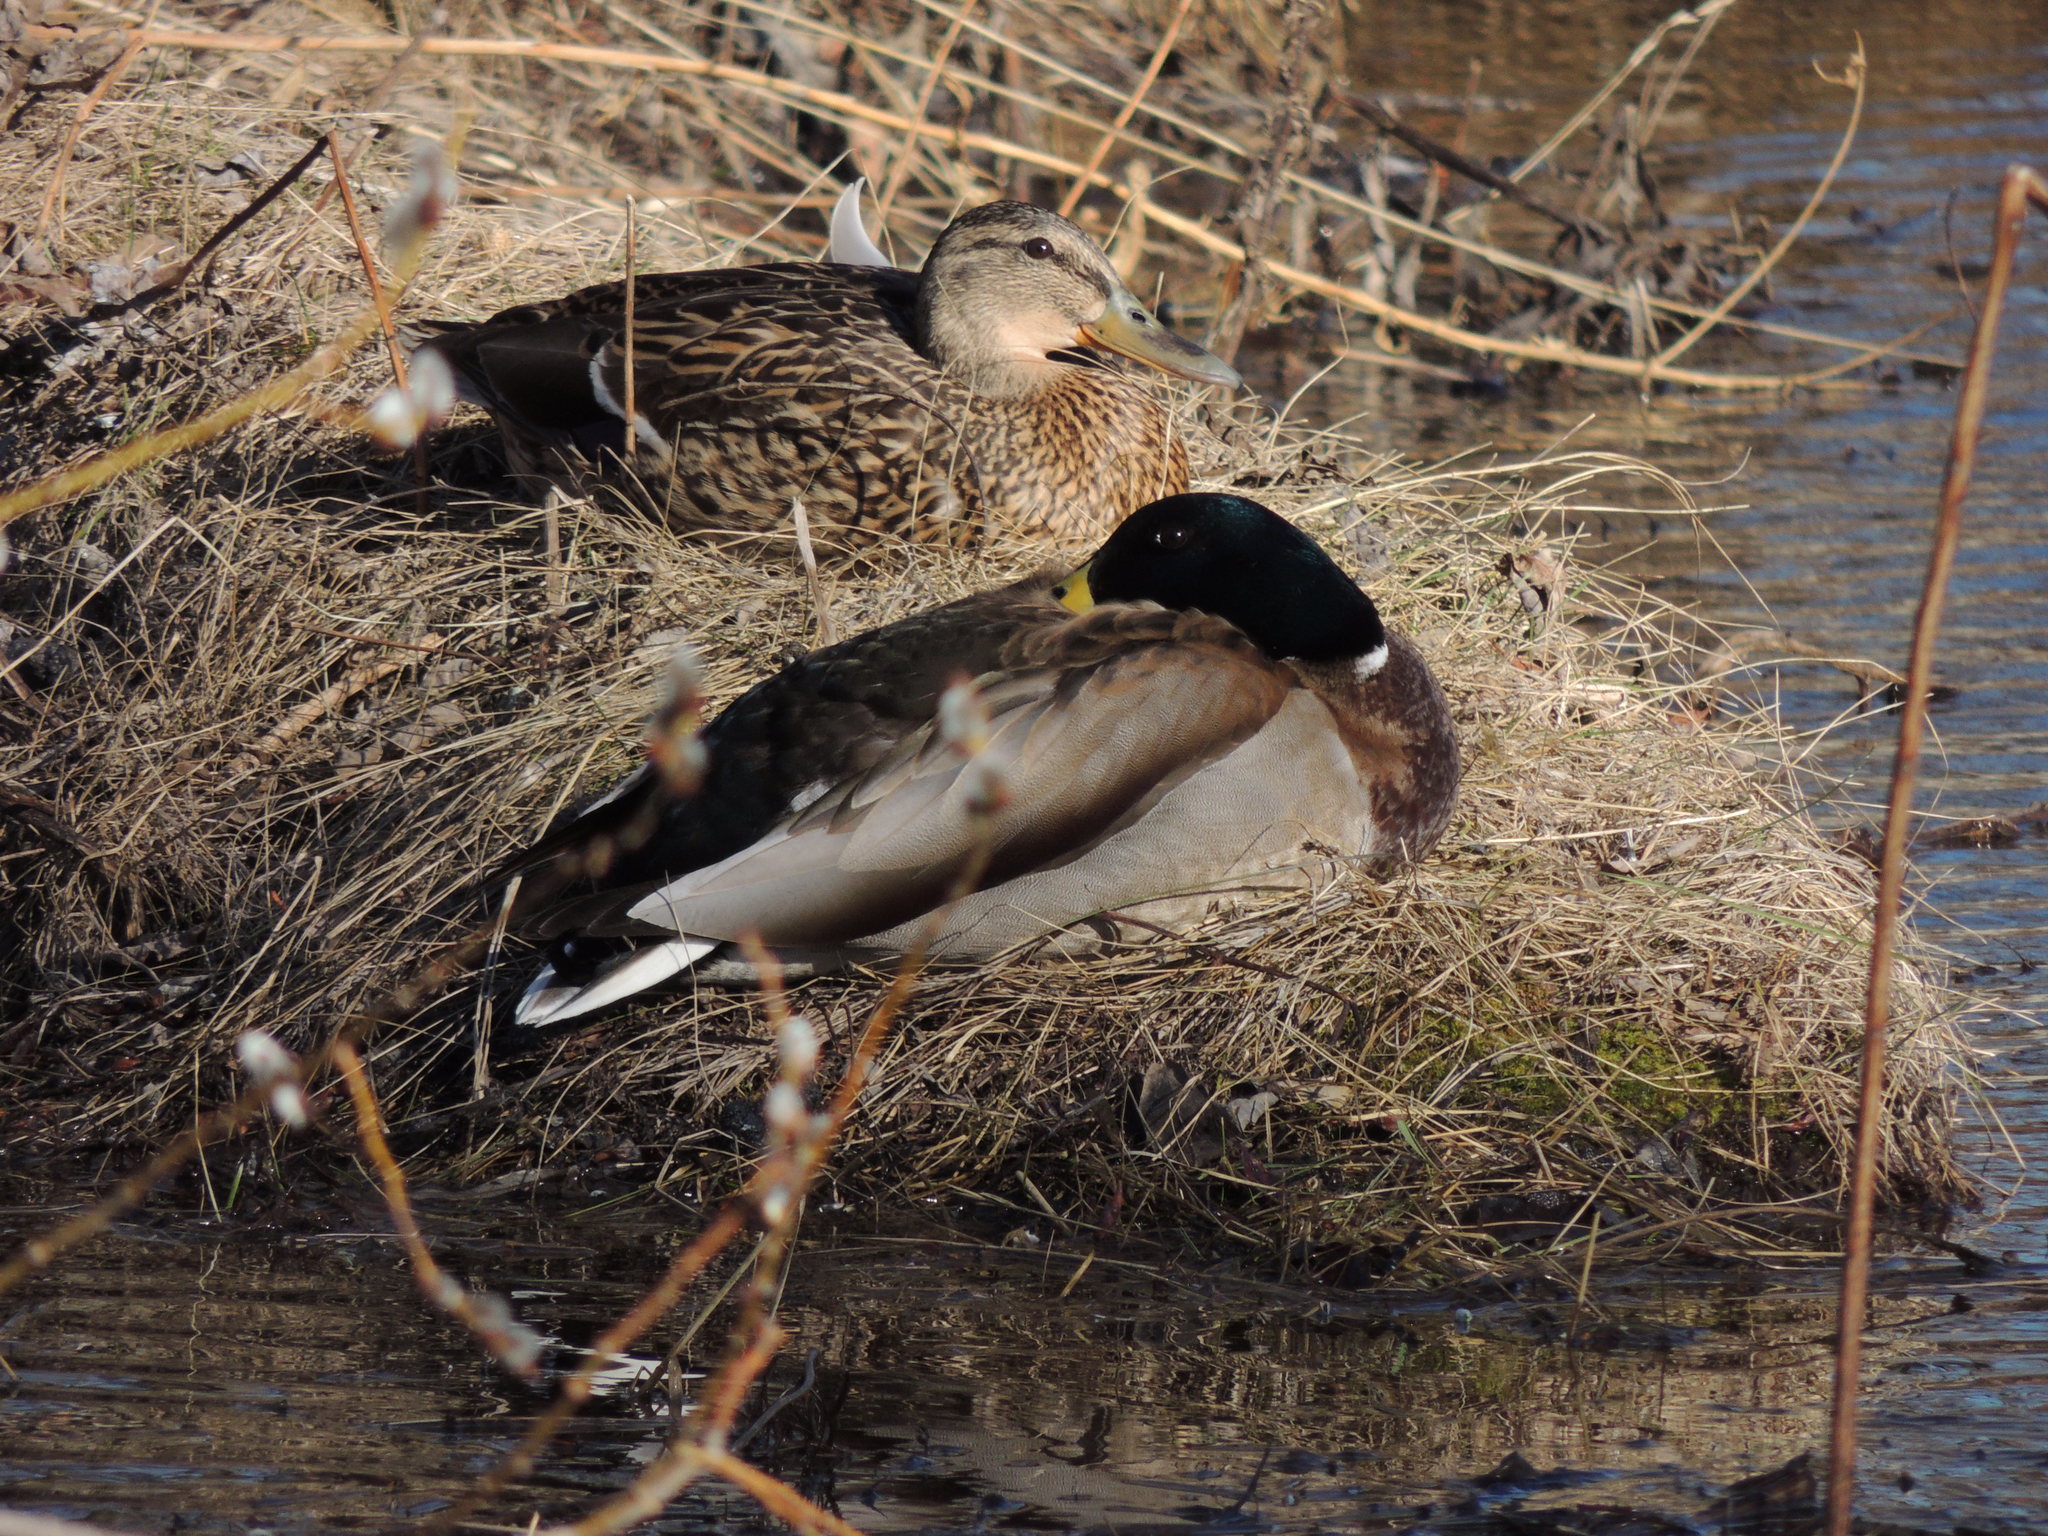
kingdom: Animalia
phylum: Chordata
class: Aves
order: Anseriformes
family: Anatidae
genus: Anas
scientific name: Anas platyrhynchos
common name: Mallard
